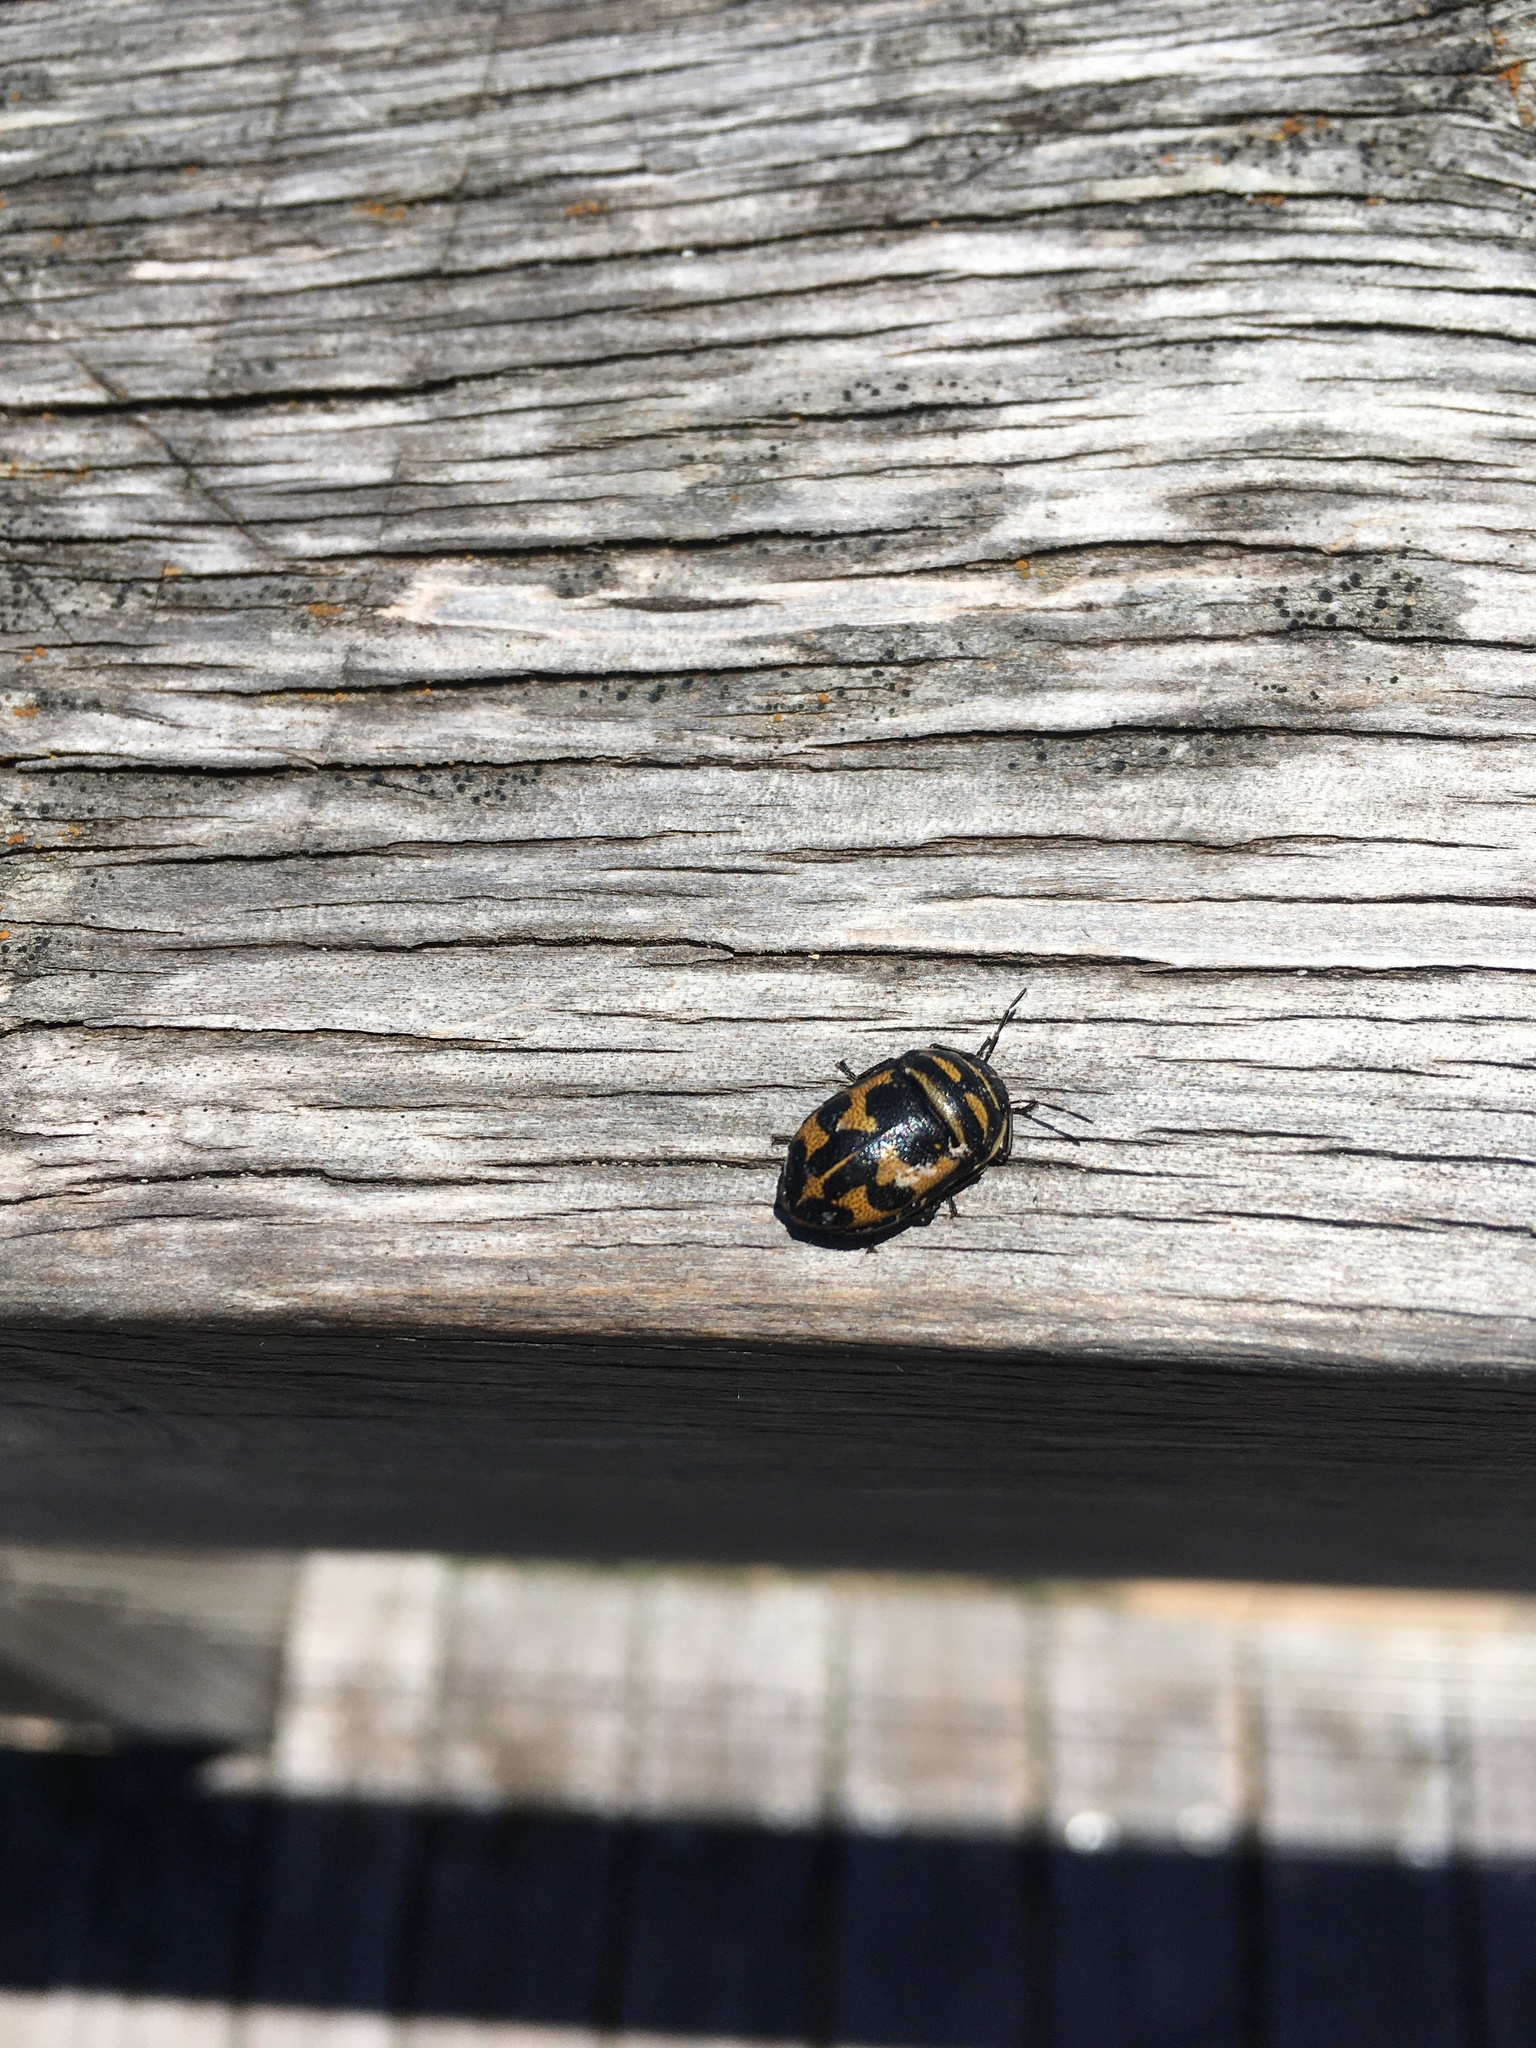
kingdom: Animalia
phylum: Arthropoda
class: Insecta
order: Hemiptera
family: Scutelleridae
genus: Choerocoris
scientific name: Choerocoris
